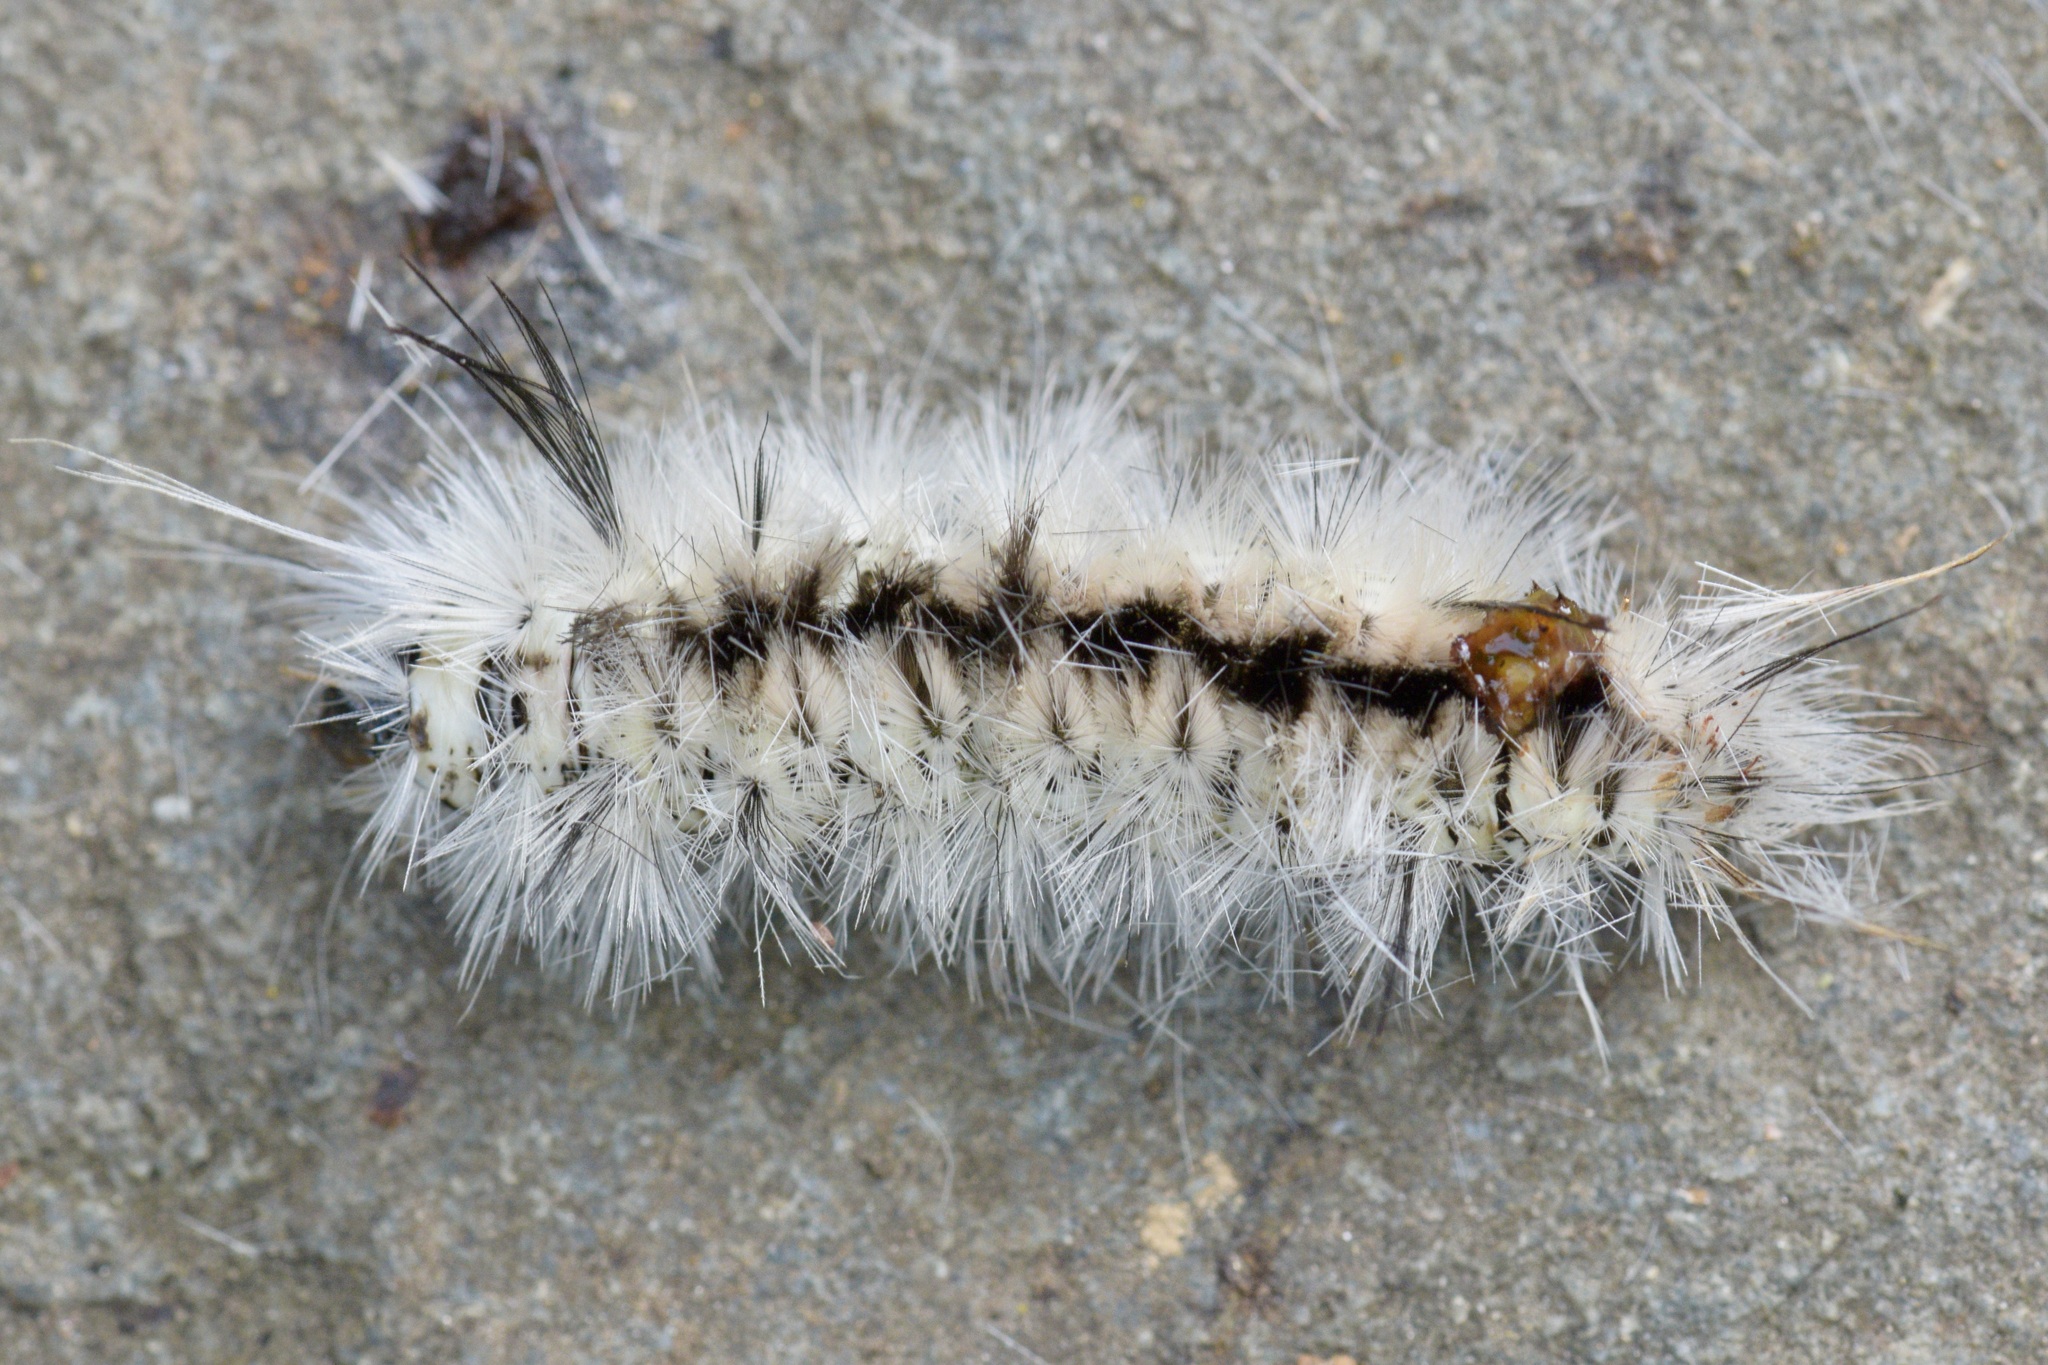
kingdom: Animalia
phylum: Arthropoda
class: Insecta
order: Lepidoptera
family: Erebidae
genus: Lophocampa
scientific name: Lophocampa caryae
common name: Hickory tussock moth
